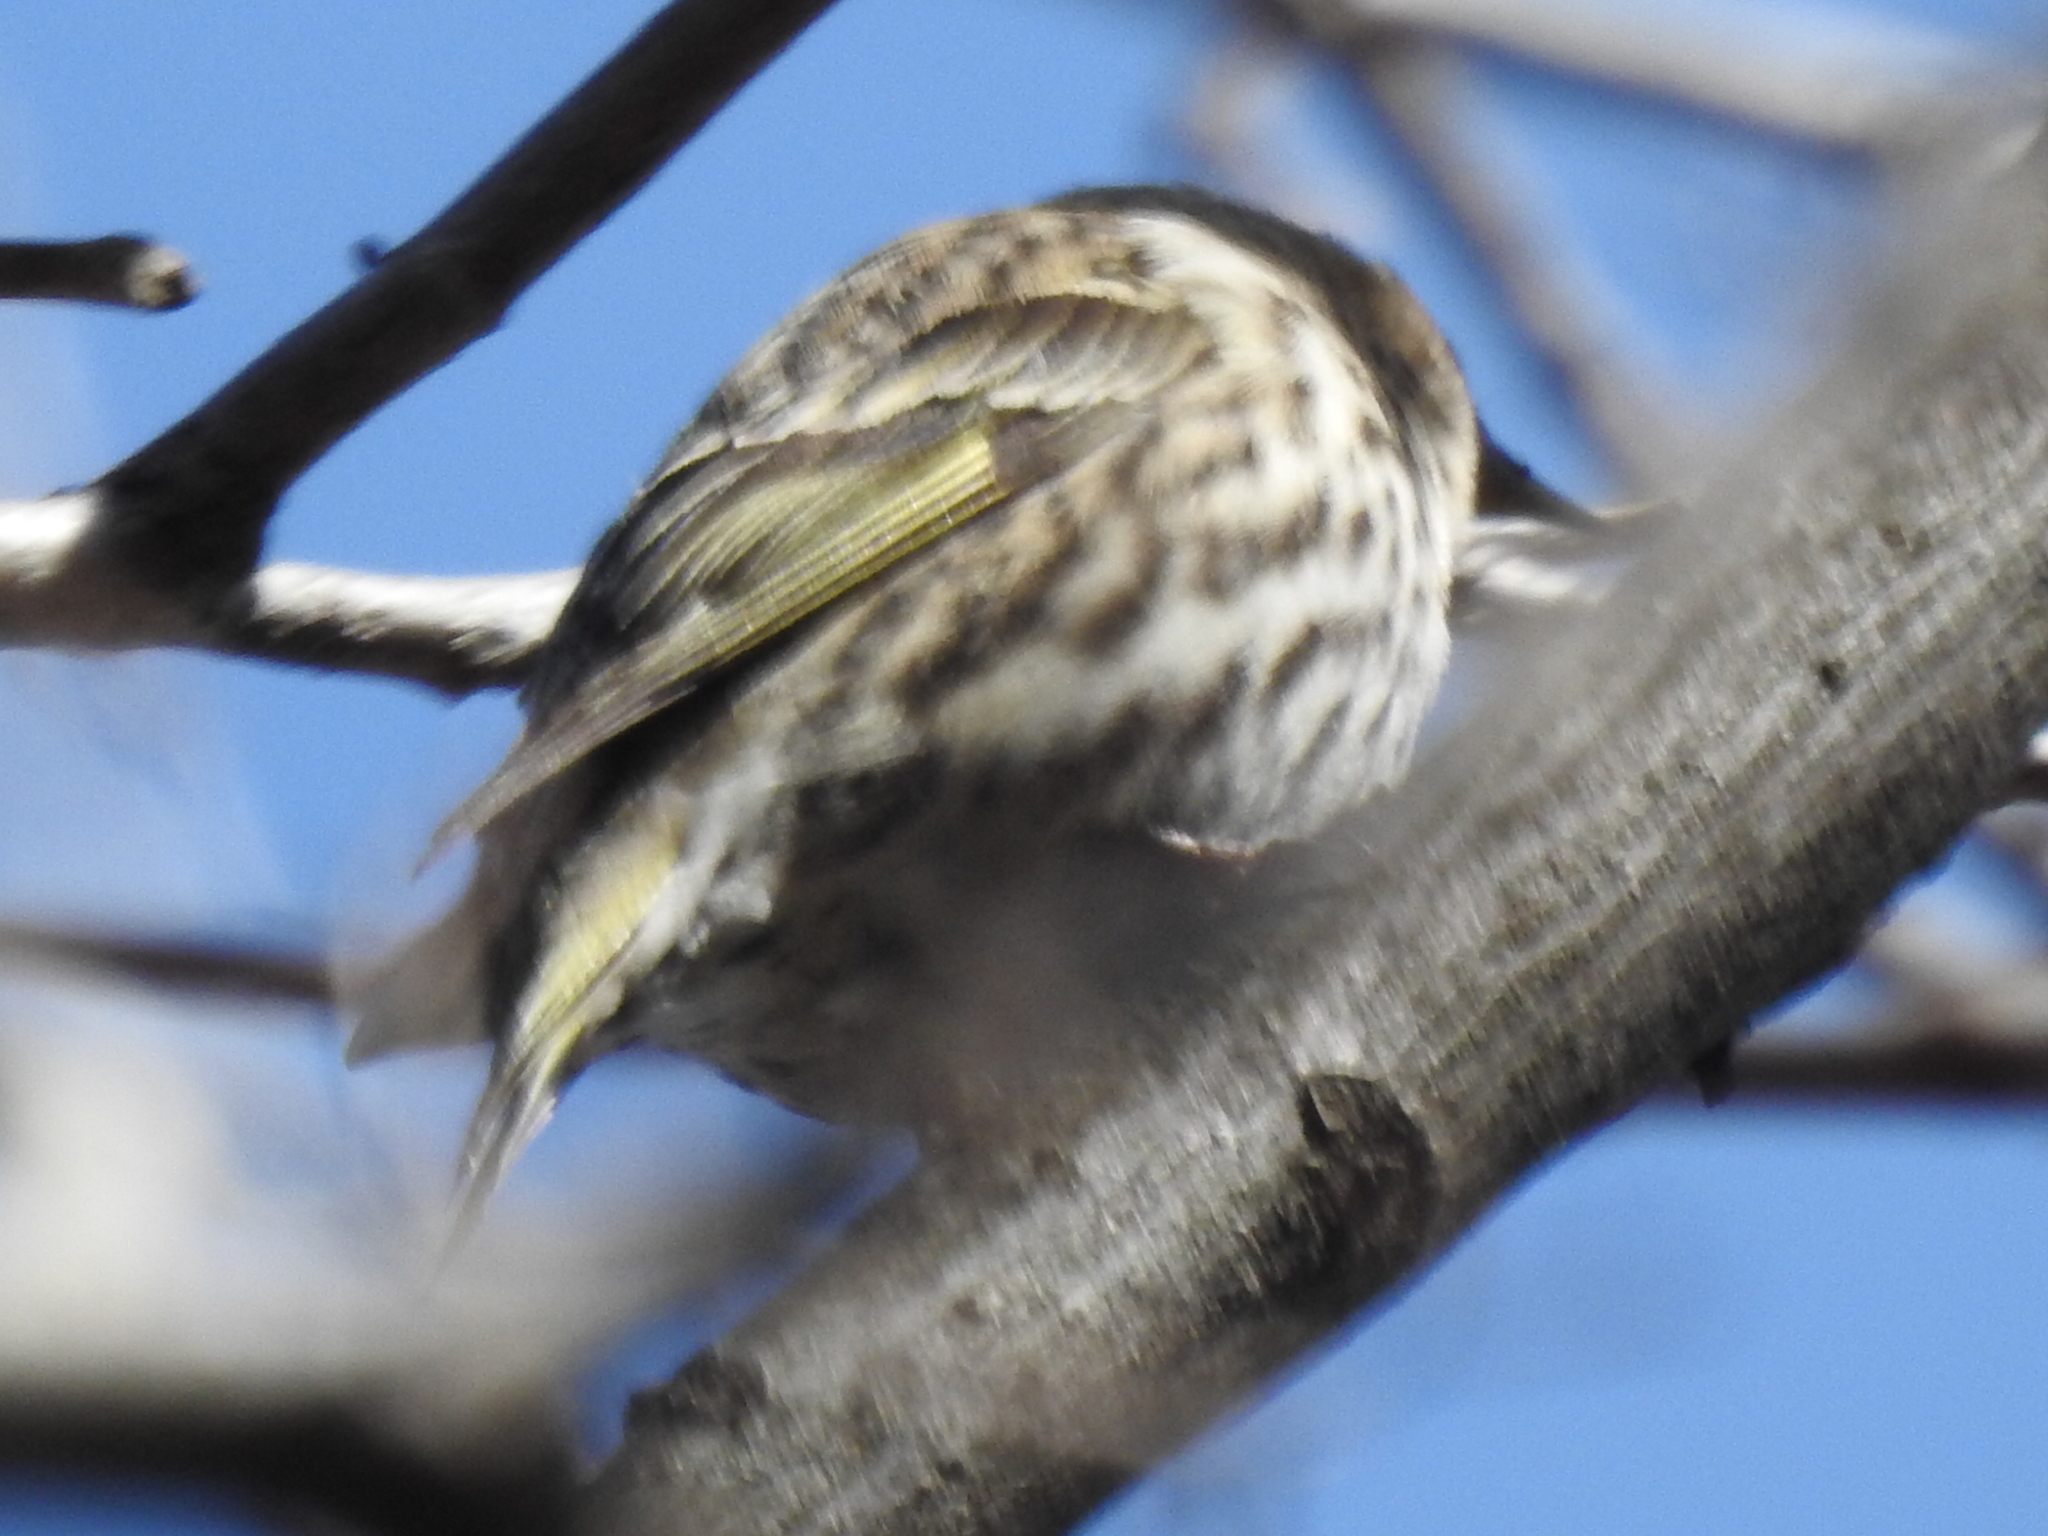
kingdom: Animalia
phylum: Chordata
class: Aves
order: Passeriformes
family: Fringillidae
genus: Spinus
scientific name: Spinus pinus
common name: Pine siskin
